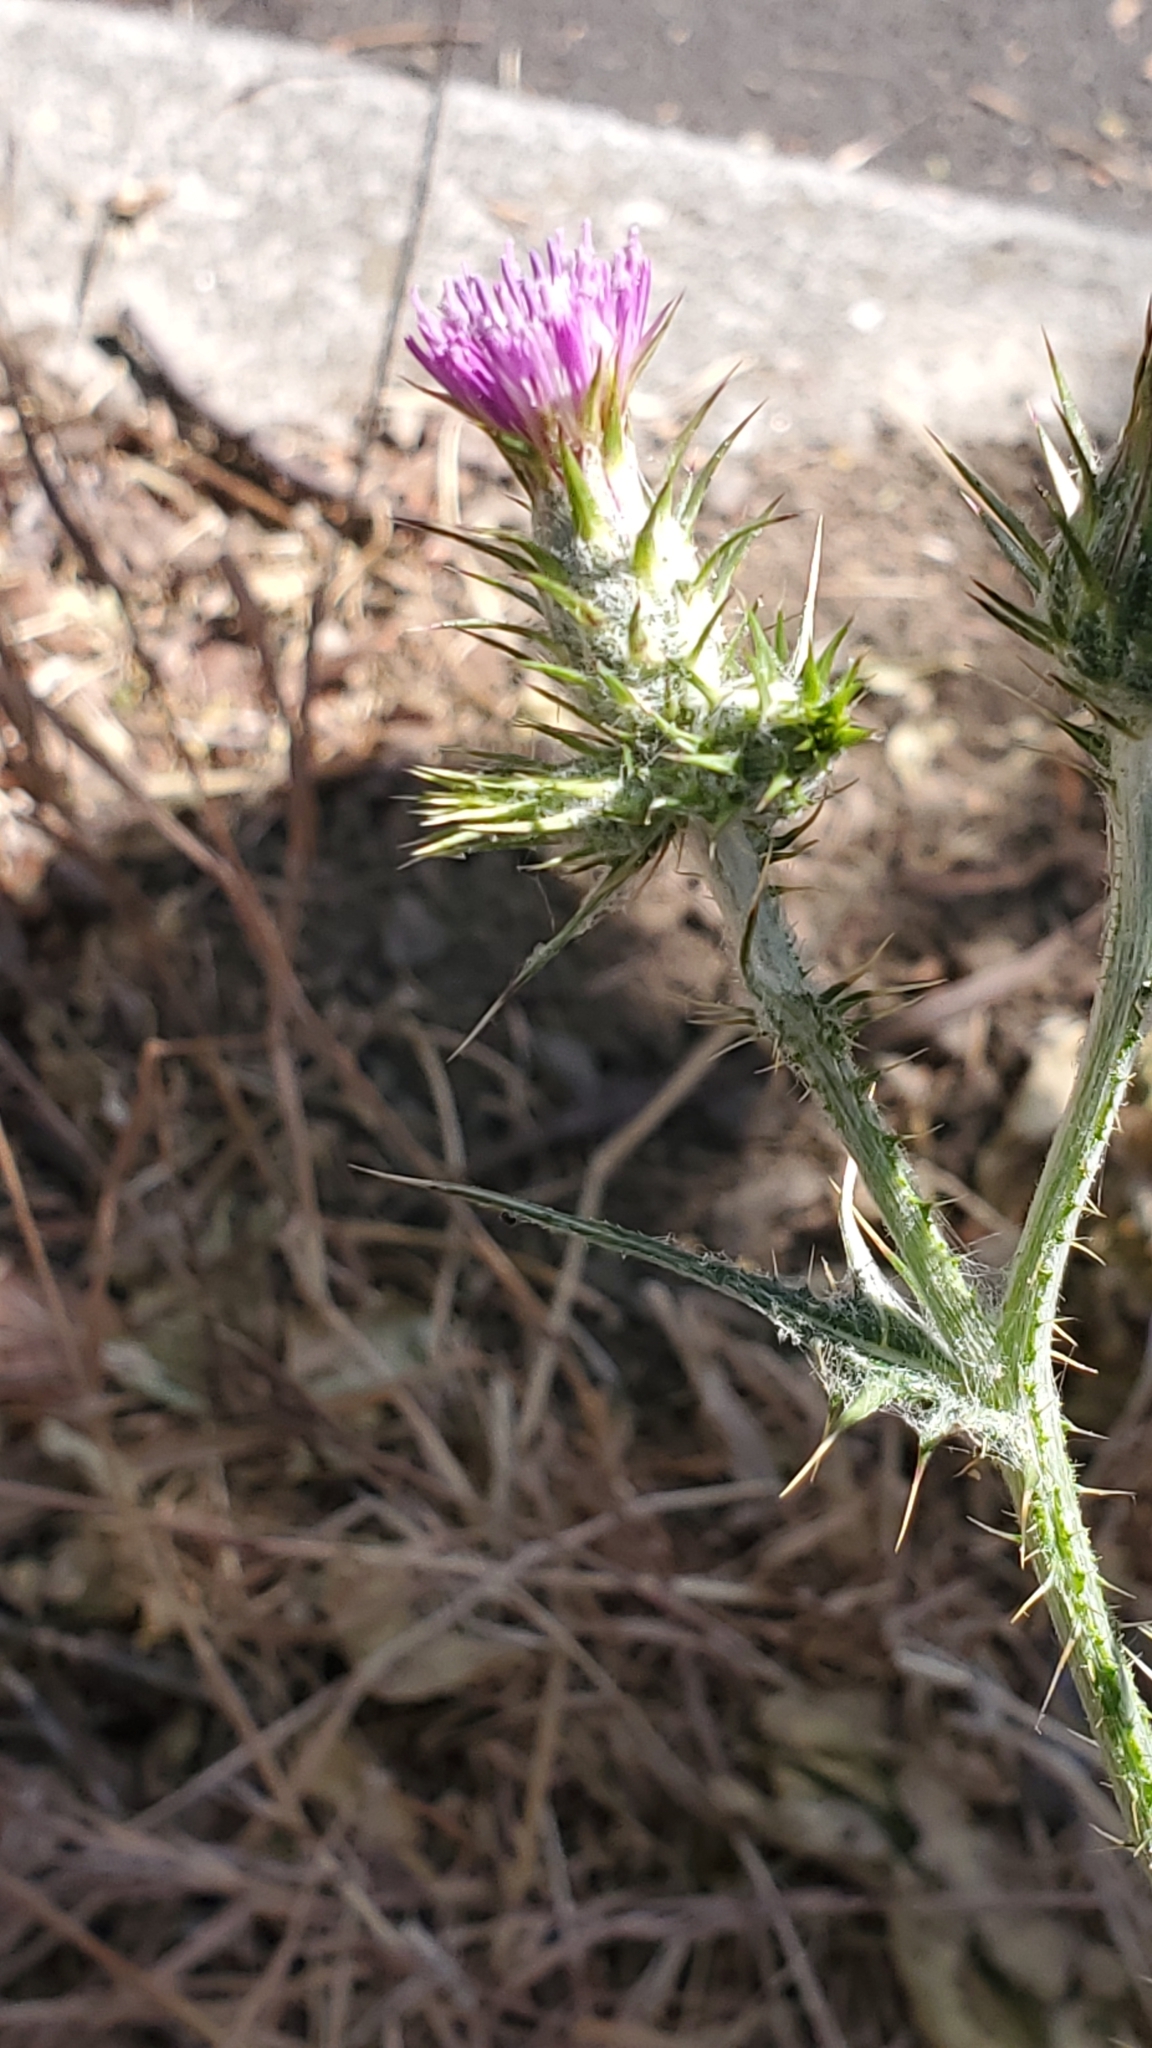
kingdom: Plantae
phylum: Tracheophyta
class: Magnoliopsida
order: Asterales
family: Asteraceae
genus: Carduus
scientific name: Carduus pycnocephalus
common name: Plymouth thistle
